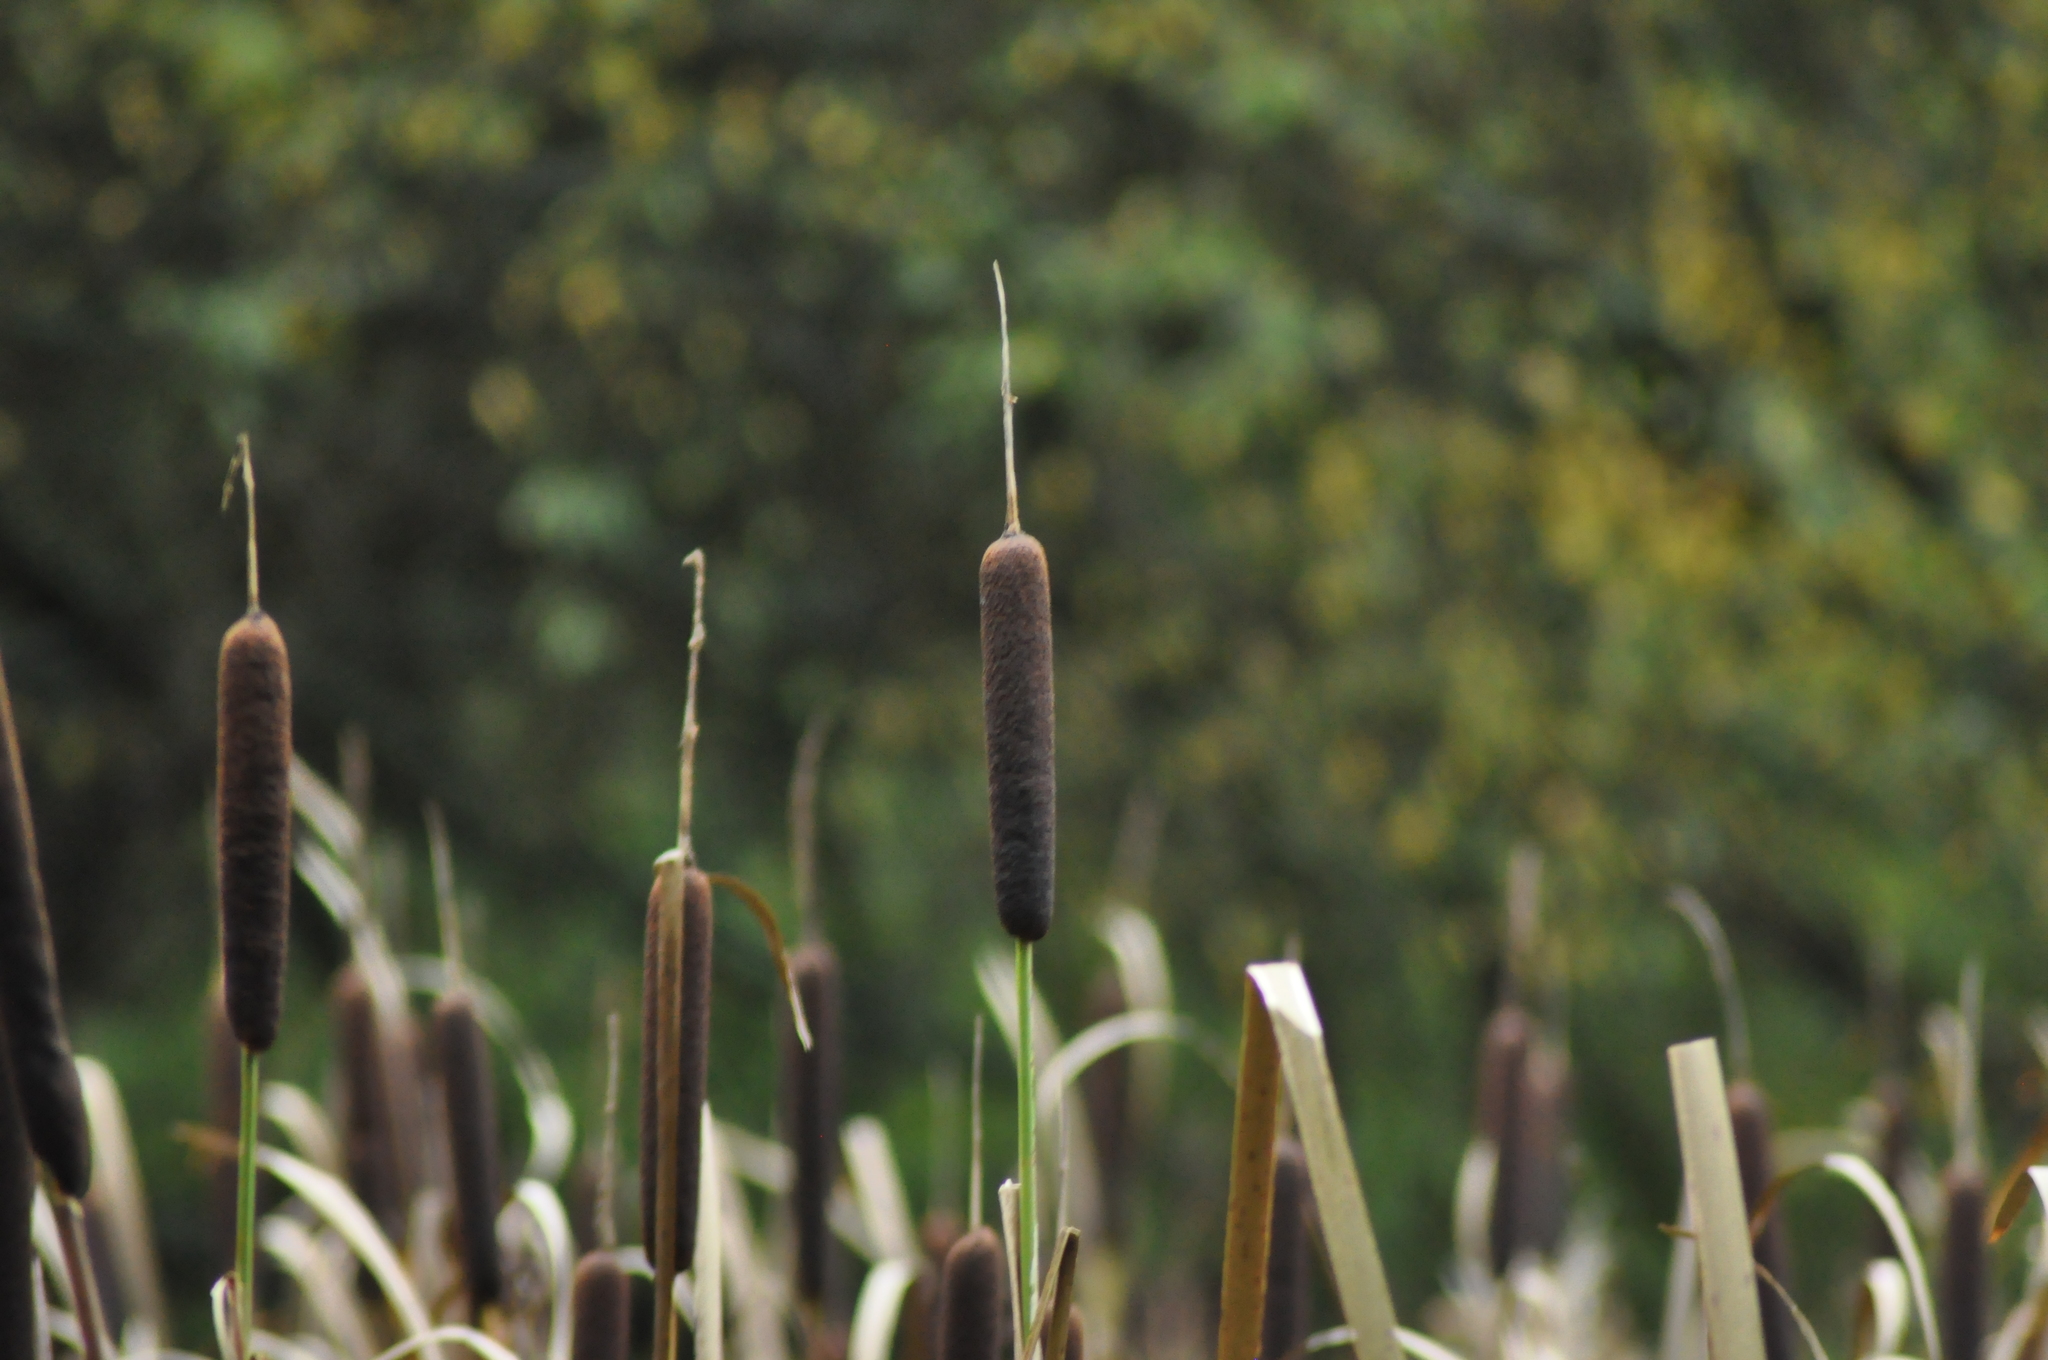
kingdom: Plantae
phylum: Tracheophyta
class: Liliopsida
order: Poales
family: Typhaceae
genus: Typha
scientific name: Typha latifolia
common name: Broadleaf cattail
